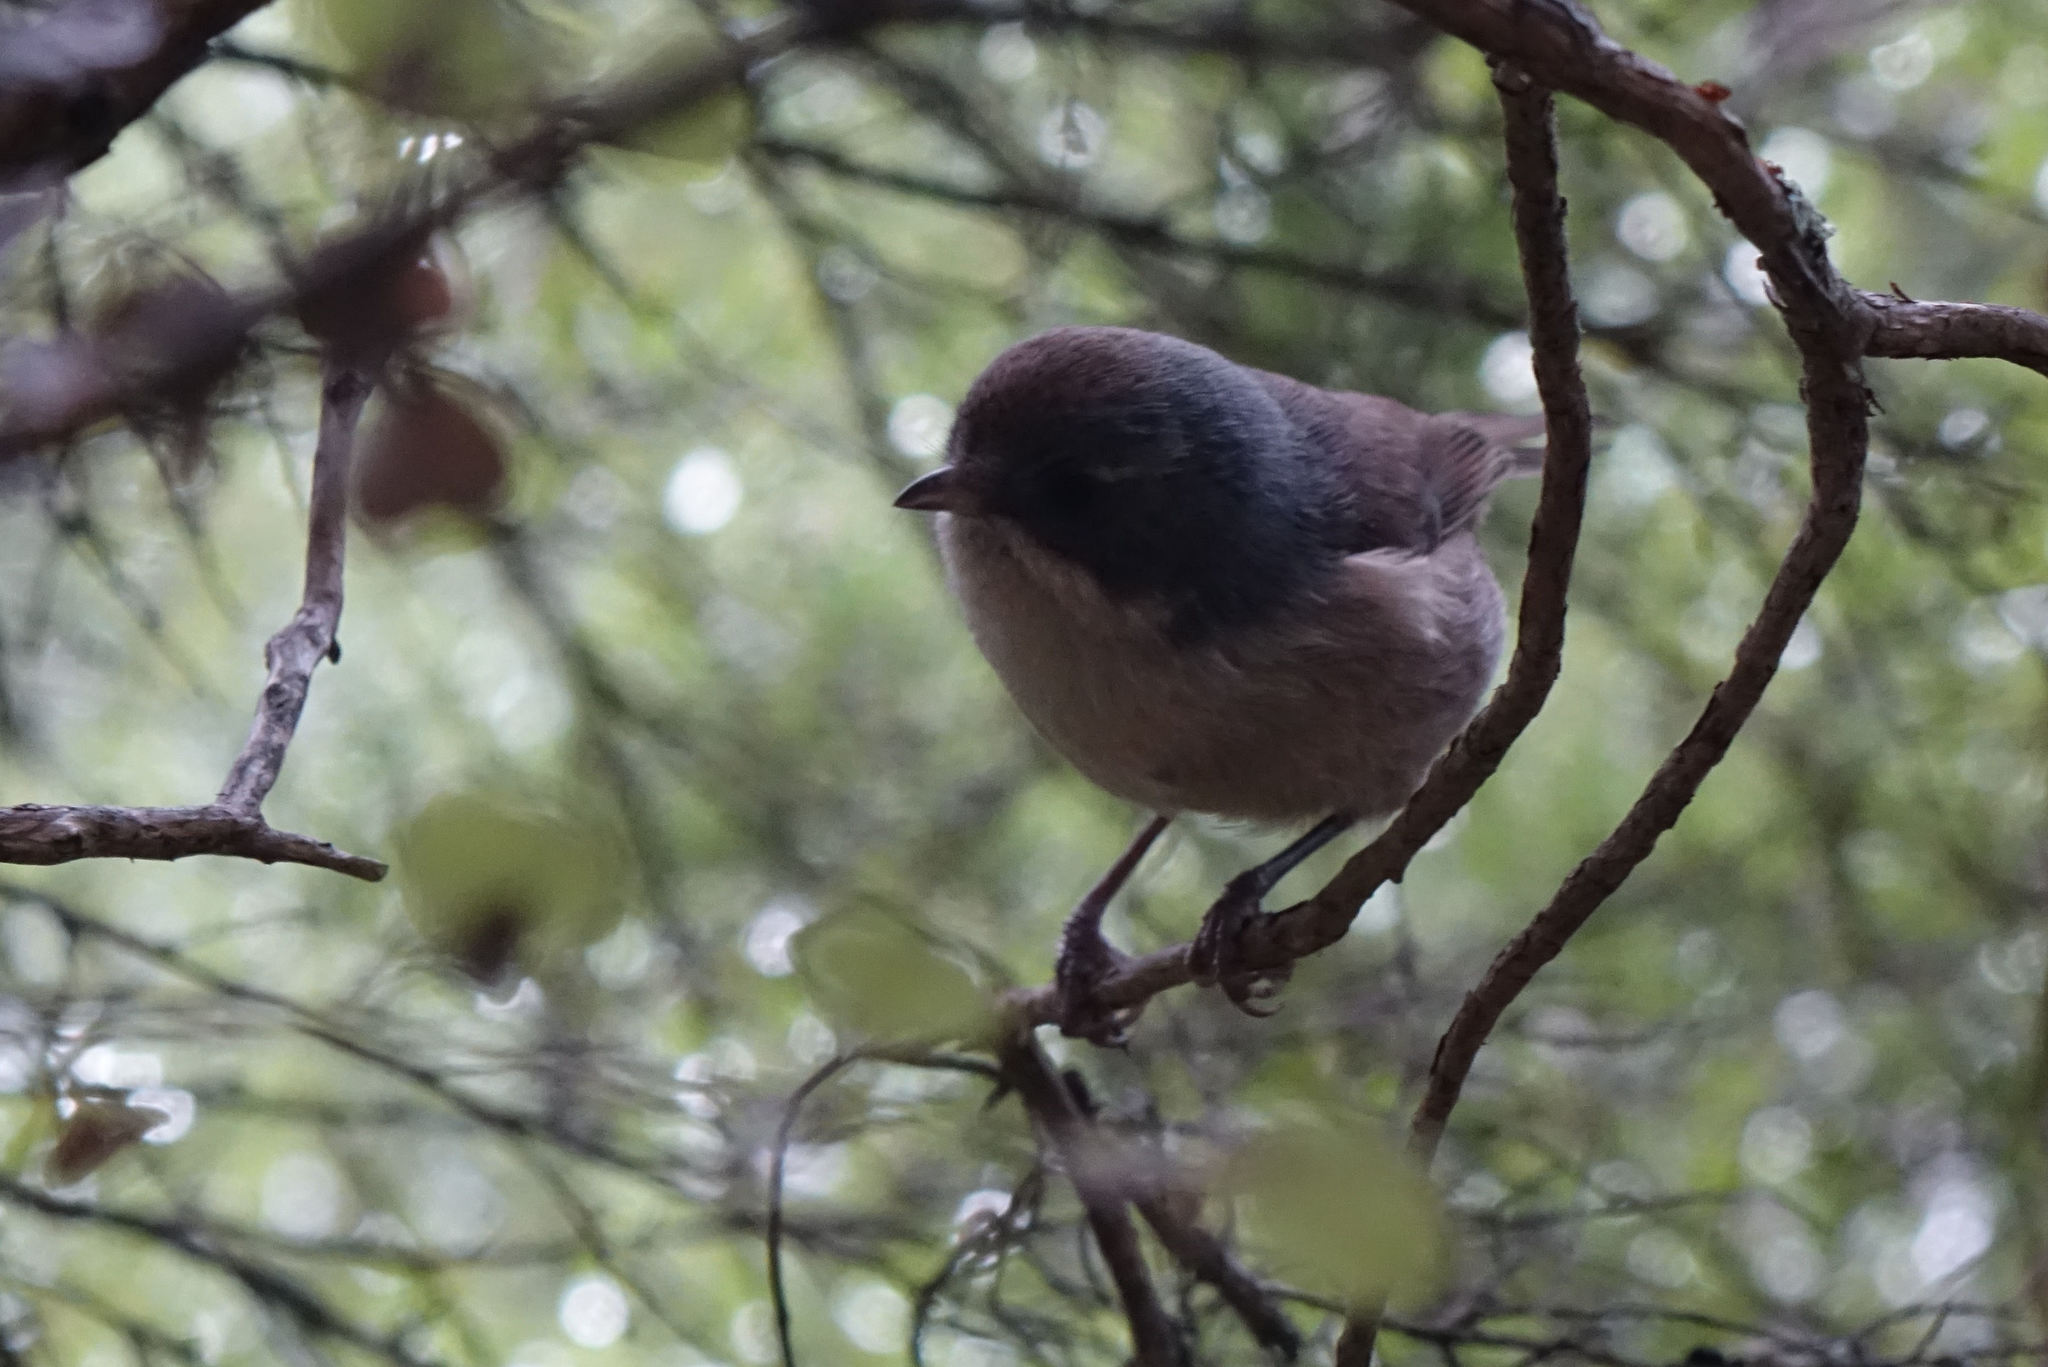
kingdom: Animalia
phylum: Chordata
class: Aves
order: Passeriformes
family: Acanthizidae
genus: Finschia
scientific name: Finschia novaeseelandiae
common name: Pipipi
